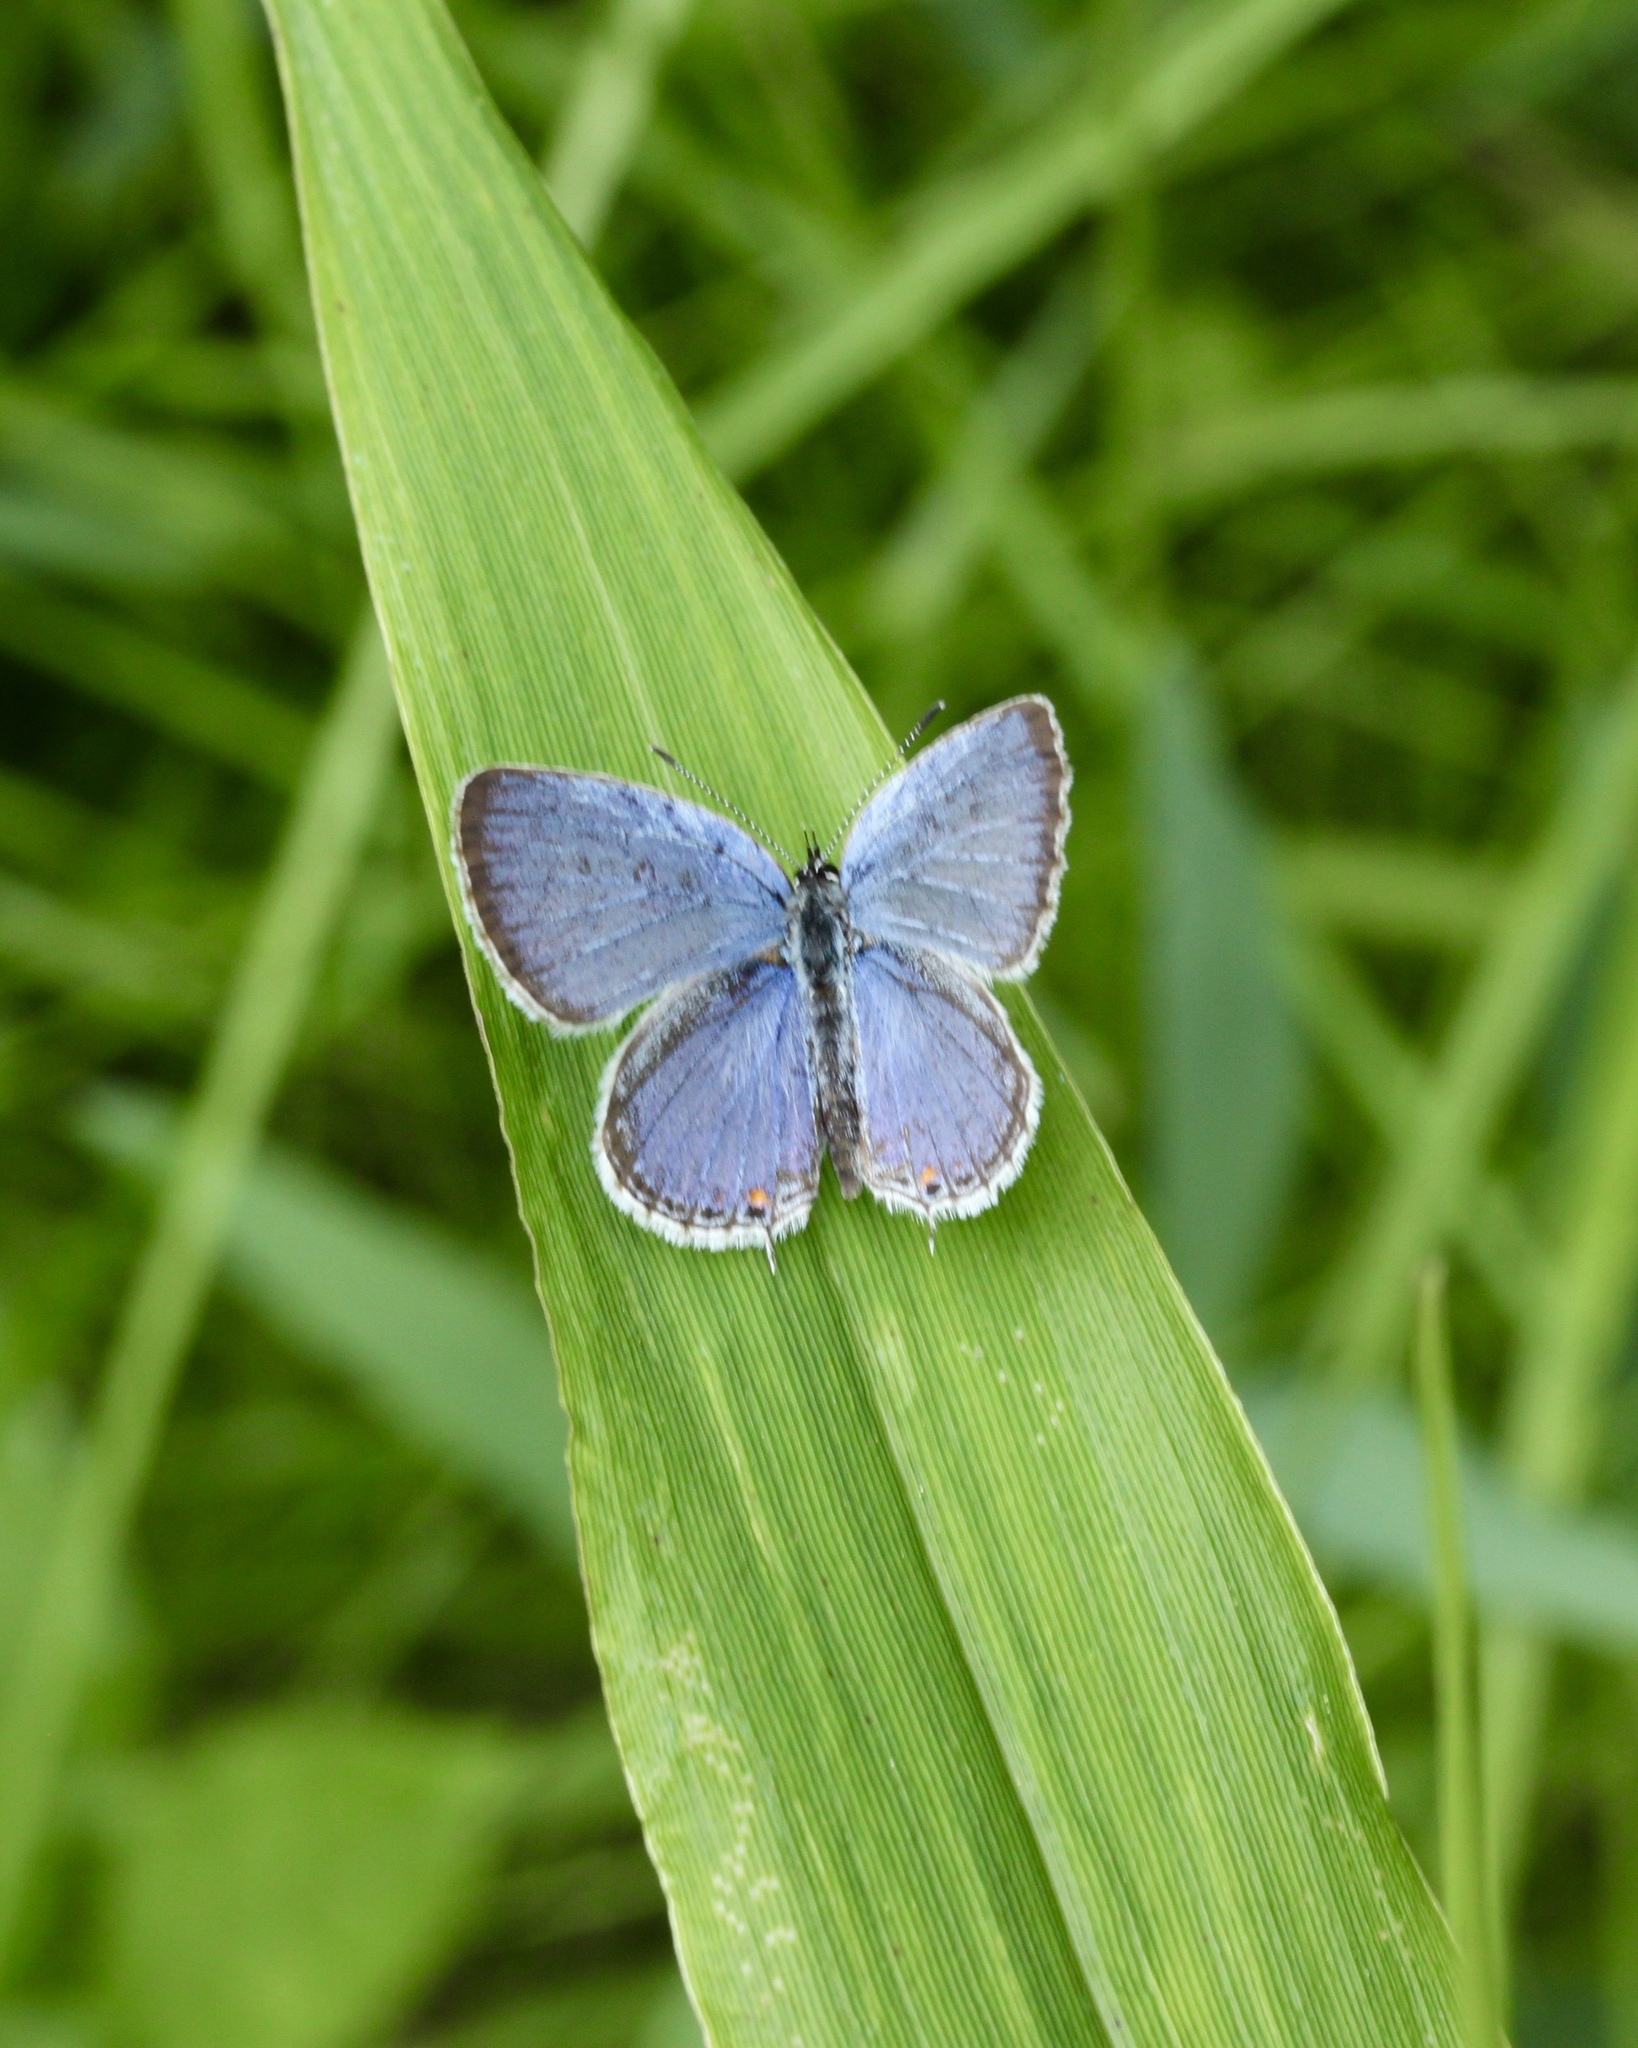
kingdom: Animalia
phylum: Arthropoda
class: Insecta
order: Lepidoptera
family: Lycaenidae
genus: Elkalyce
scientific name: Elkalyce comyntas
